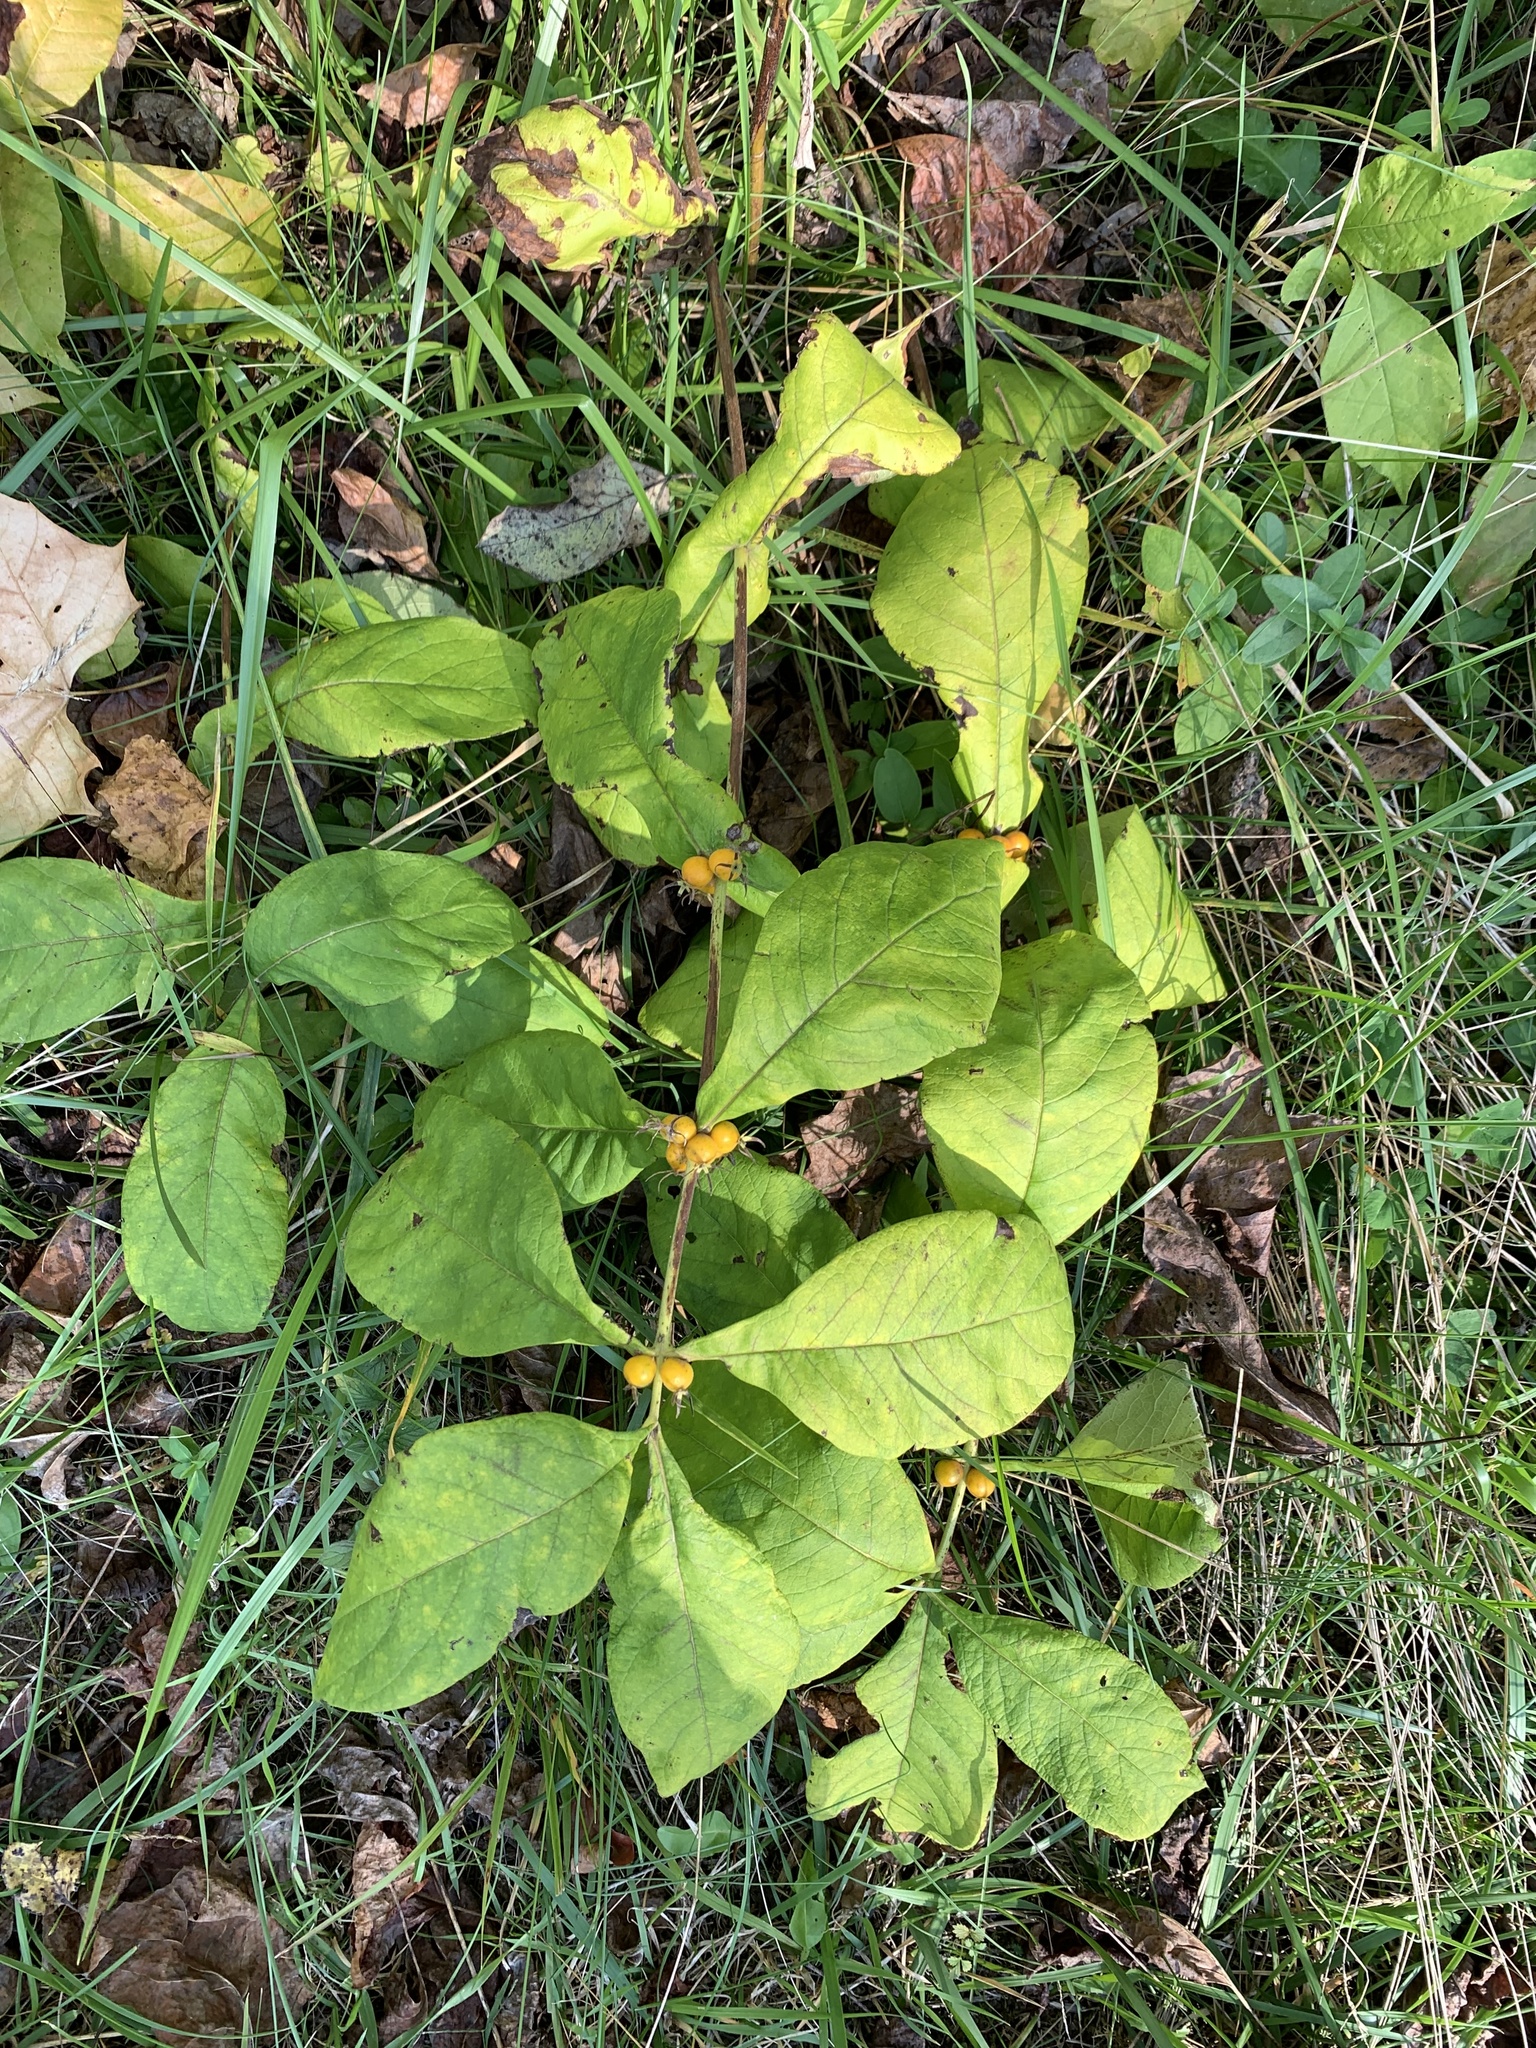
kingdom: Plantae
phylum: Tracheophyta
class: Magnoliopsida
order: Dipsacales
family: Caprifoliaceae
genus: Triosteum
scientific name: Triosteum perfoliatum
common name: Common horse-gentian
